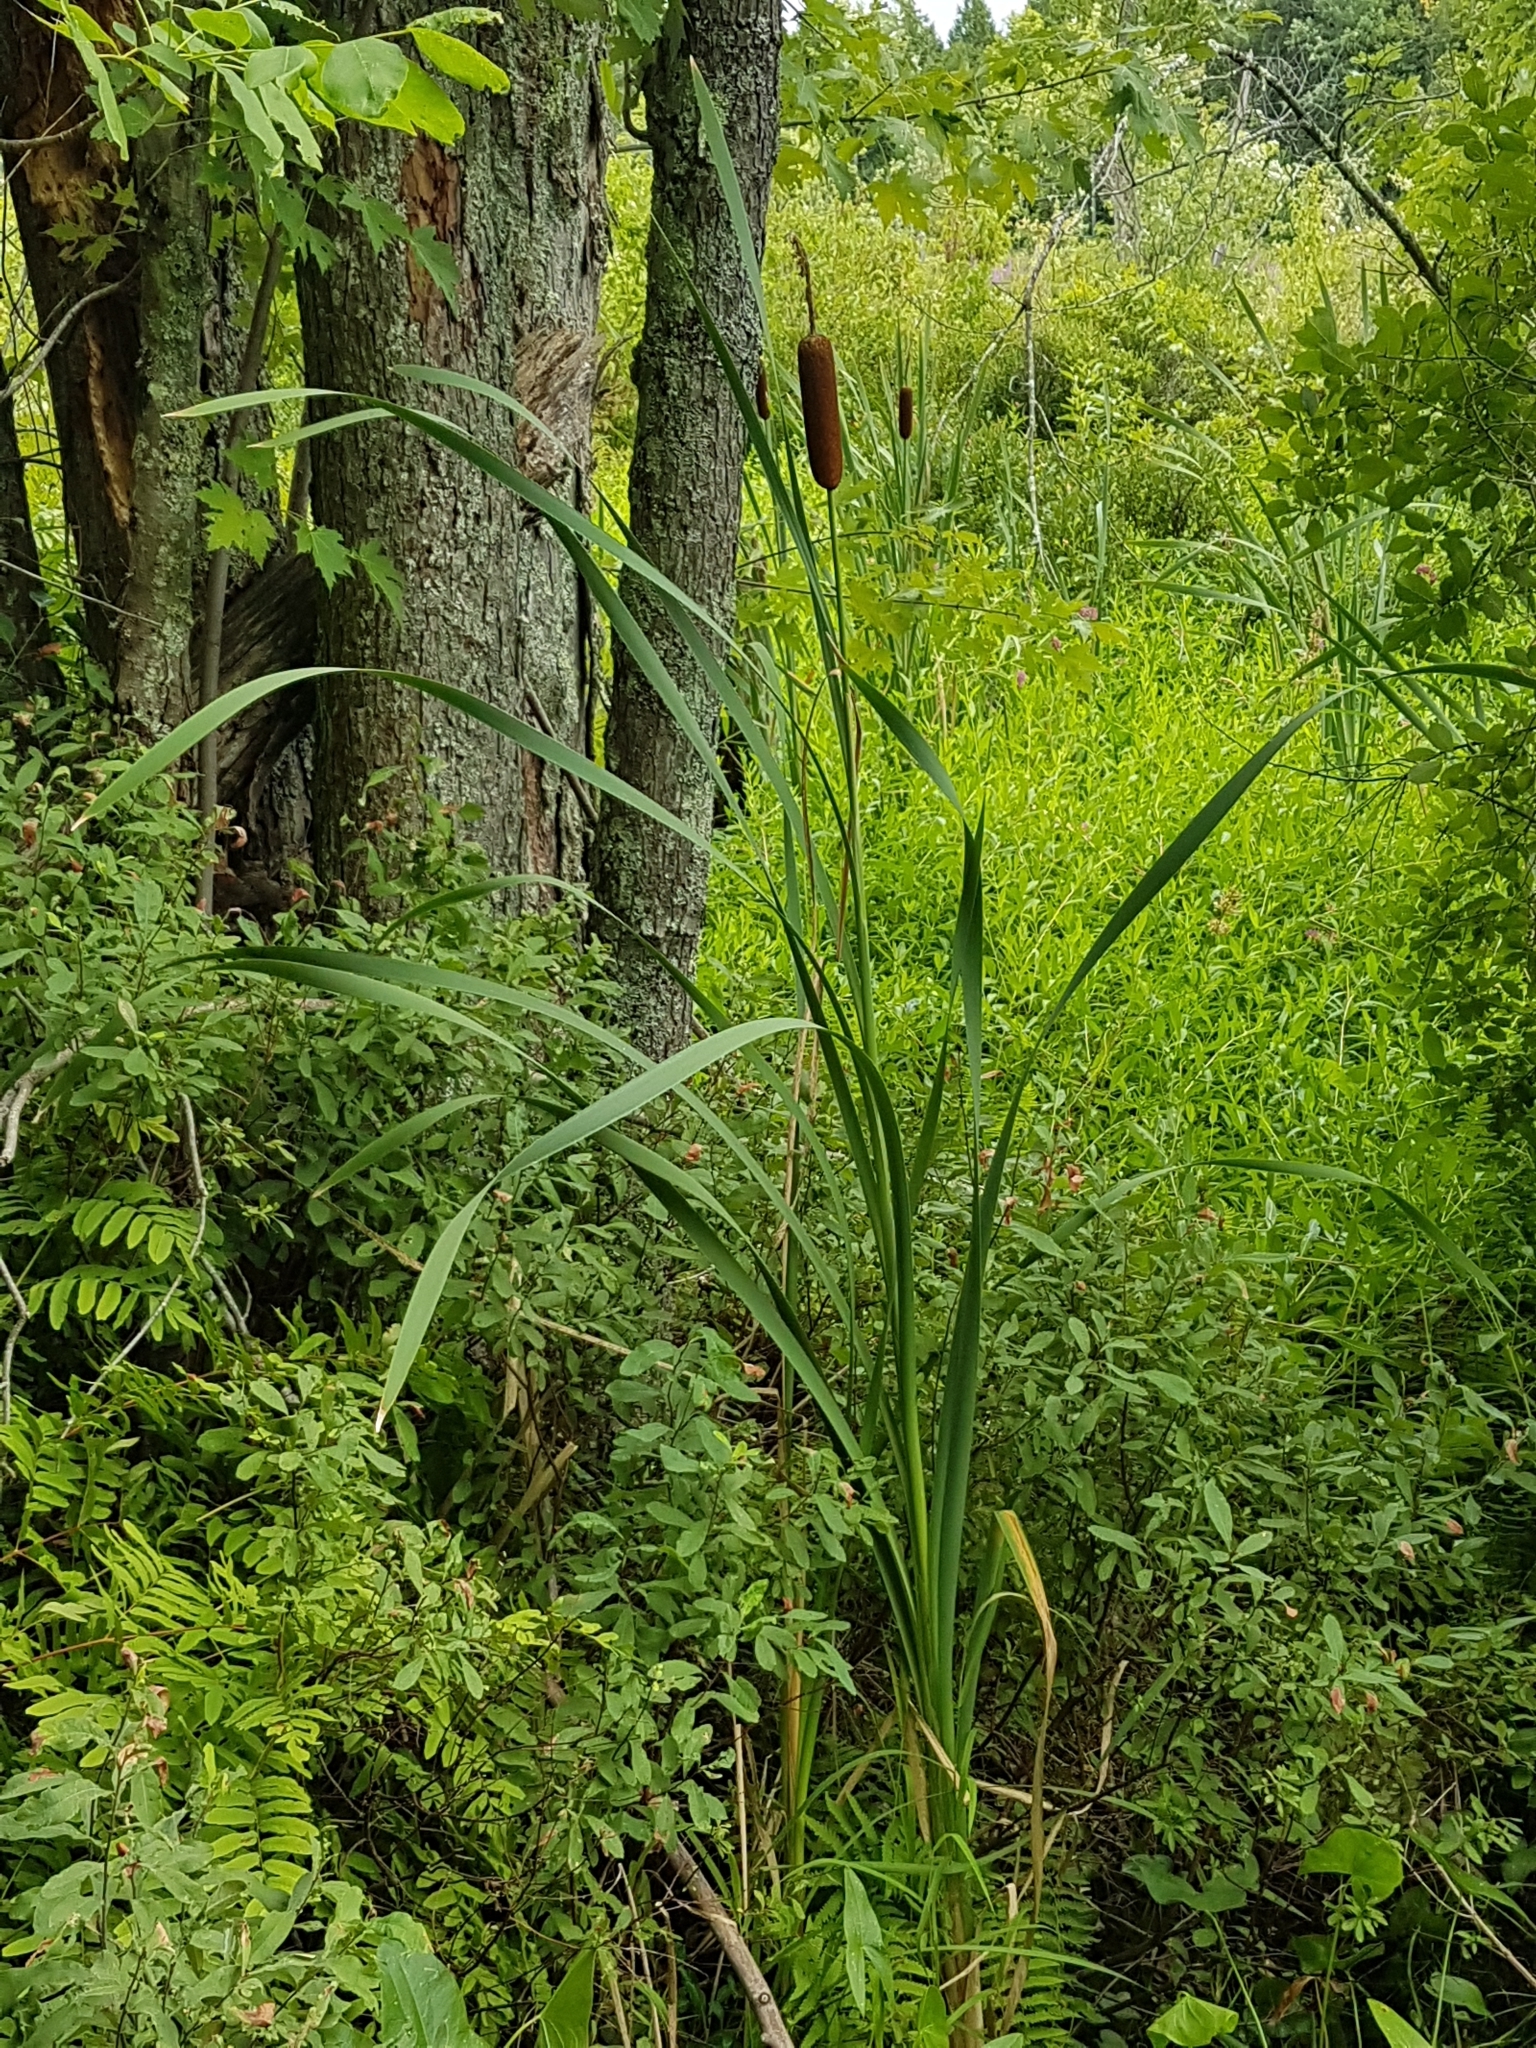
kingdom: Plantae
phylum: Tracheophyta
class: Liliopsida
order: Poales
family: Typhaceae
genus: Typha
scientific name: Typha latifolia
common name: Broadleaf cattail
